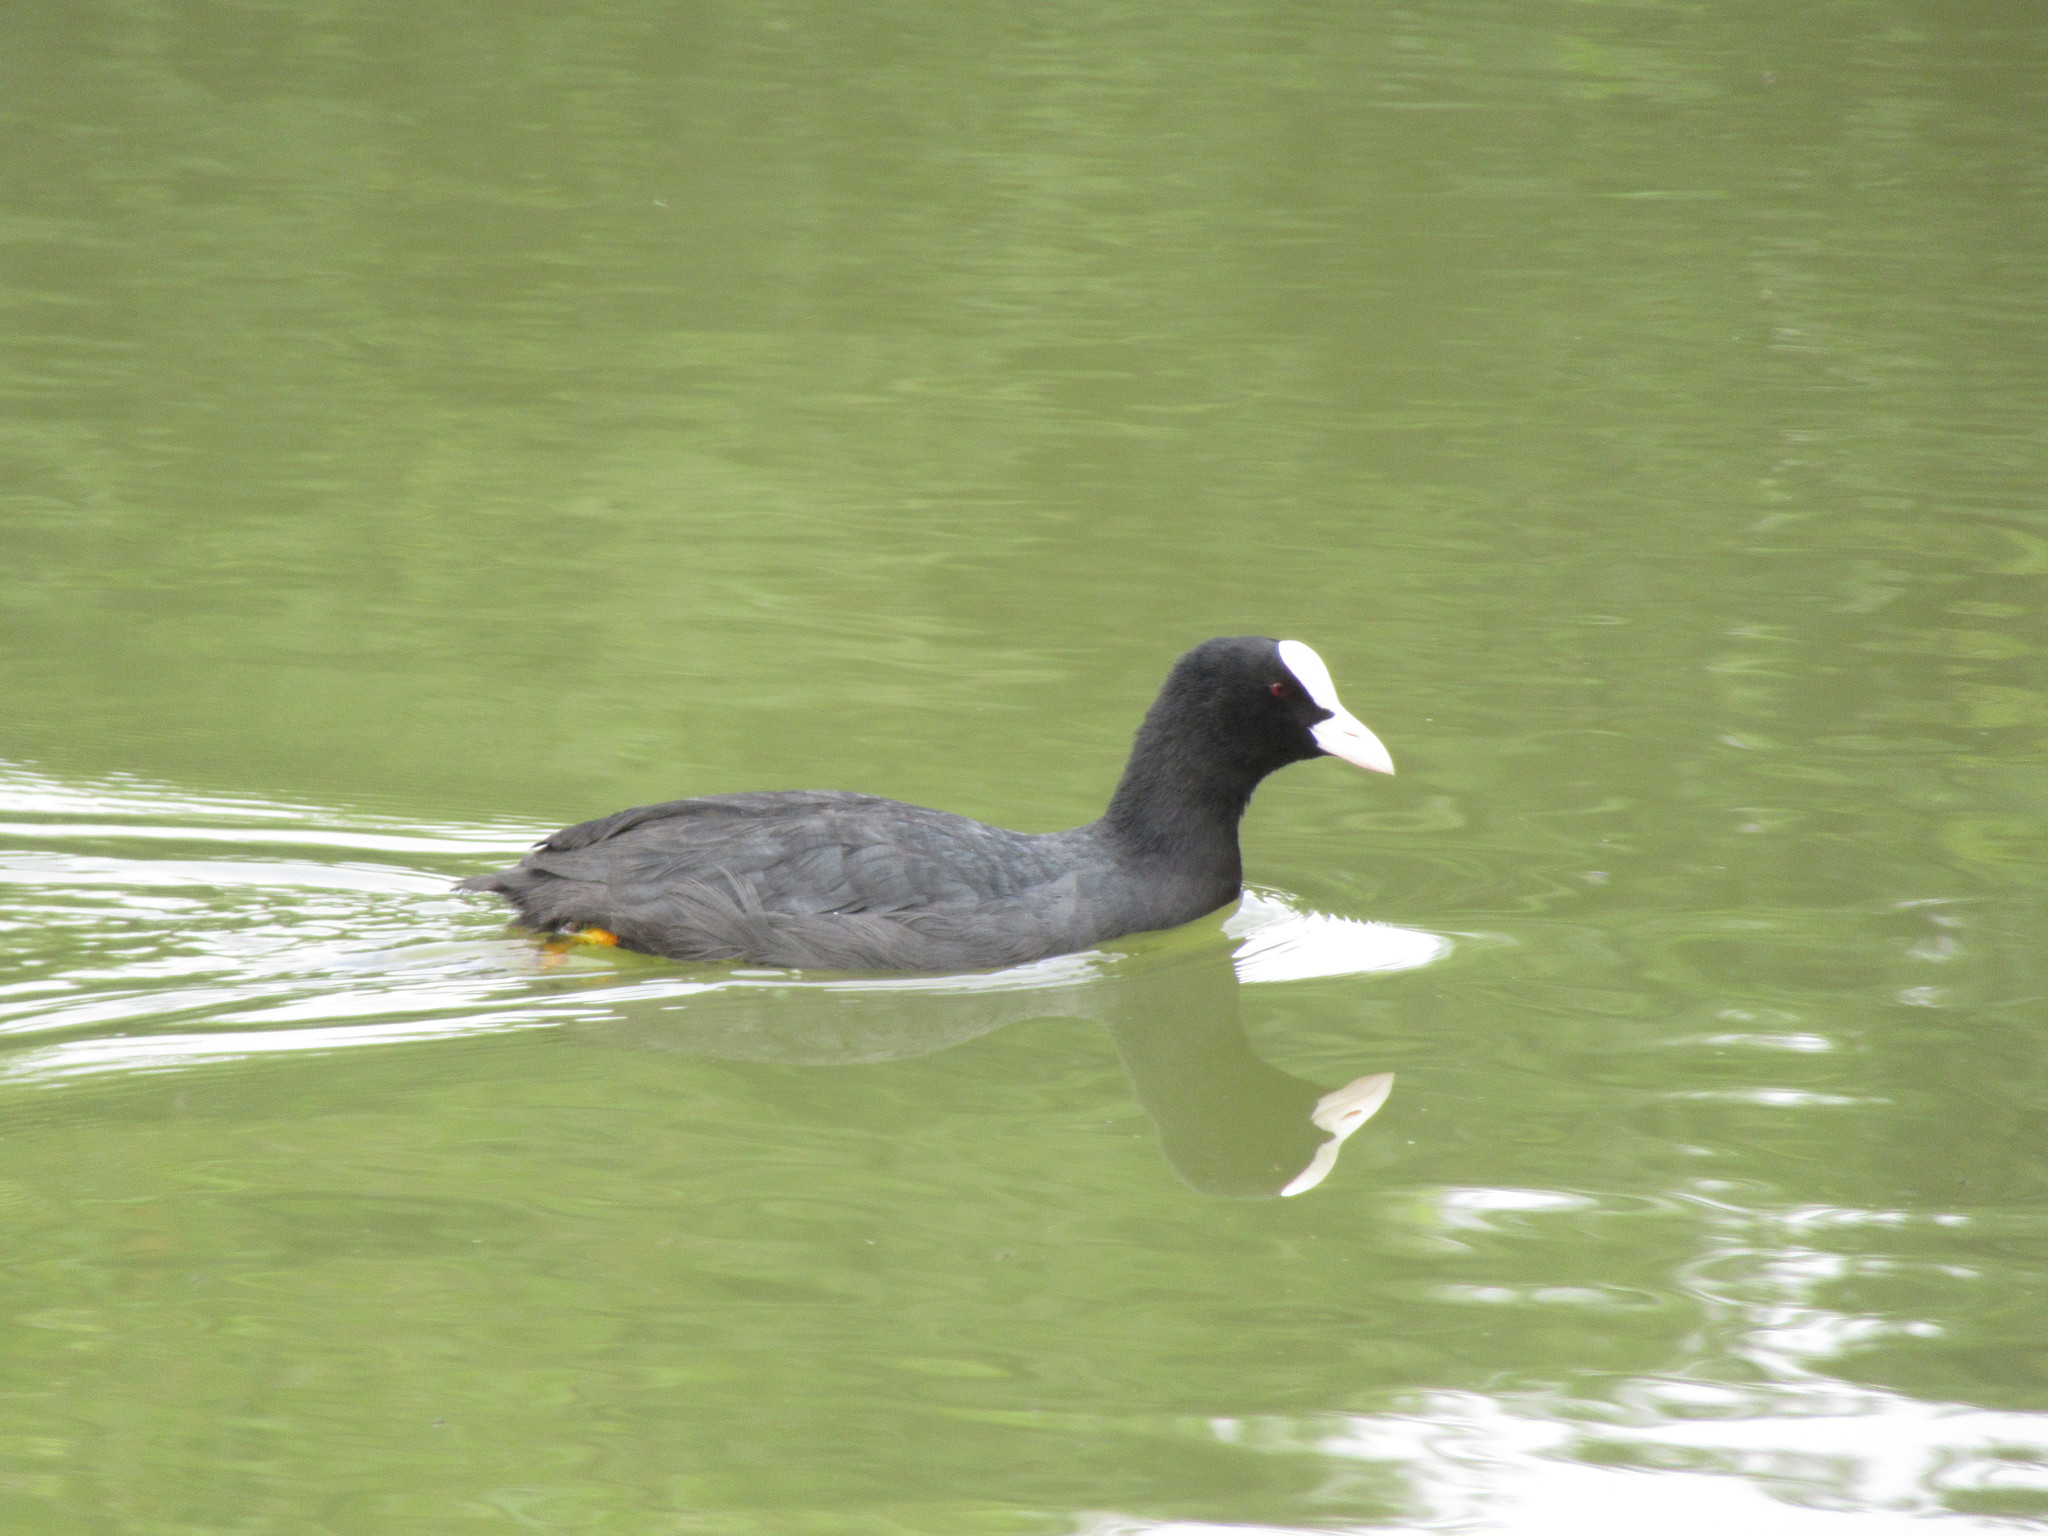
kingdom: Animalia
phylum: Chordata
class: Aves
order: Gruiformes
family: Rallidae
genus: Fulica
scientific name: Fulica atra
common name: Eurasian coot
